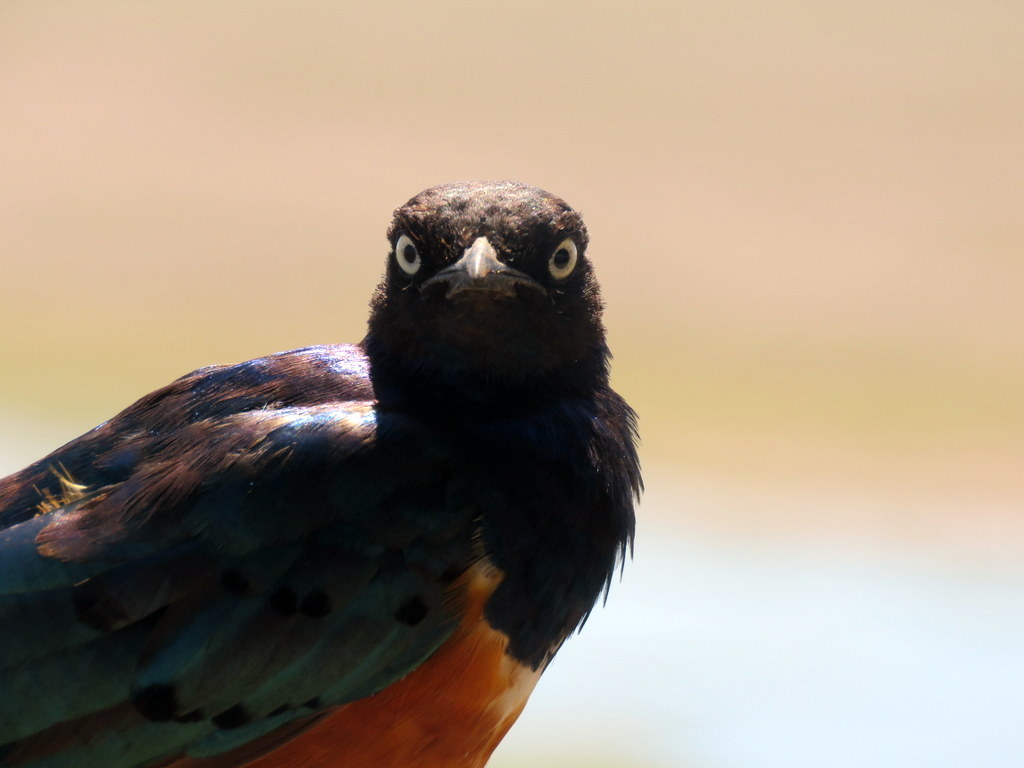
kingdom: Animalia
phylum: Chordata
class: Aves
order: Passeriformes
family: Sturnidae
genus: Lamprotornis
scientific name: Lamprotornis superbus
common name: Superb starling
